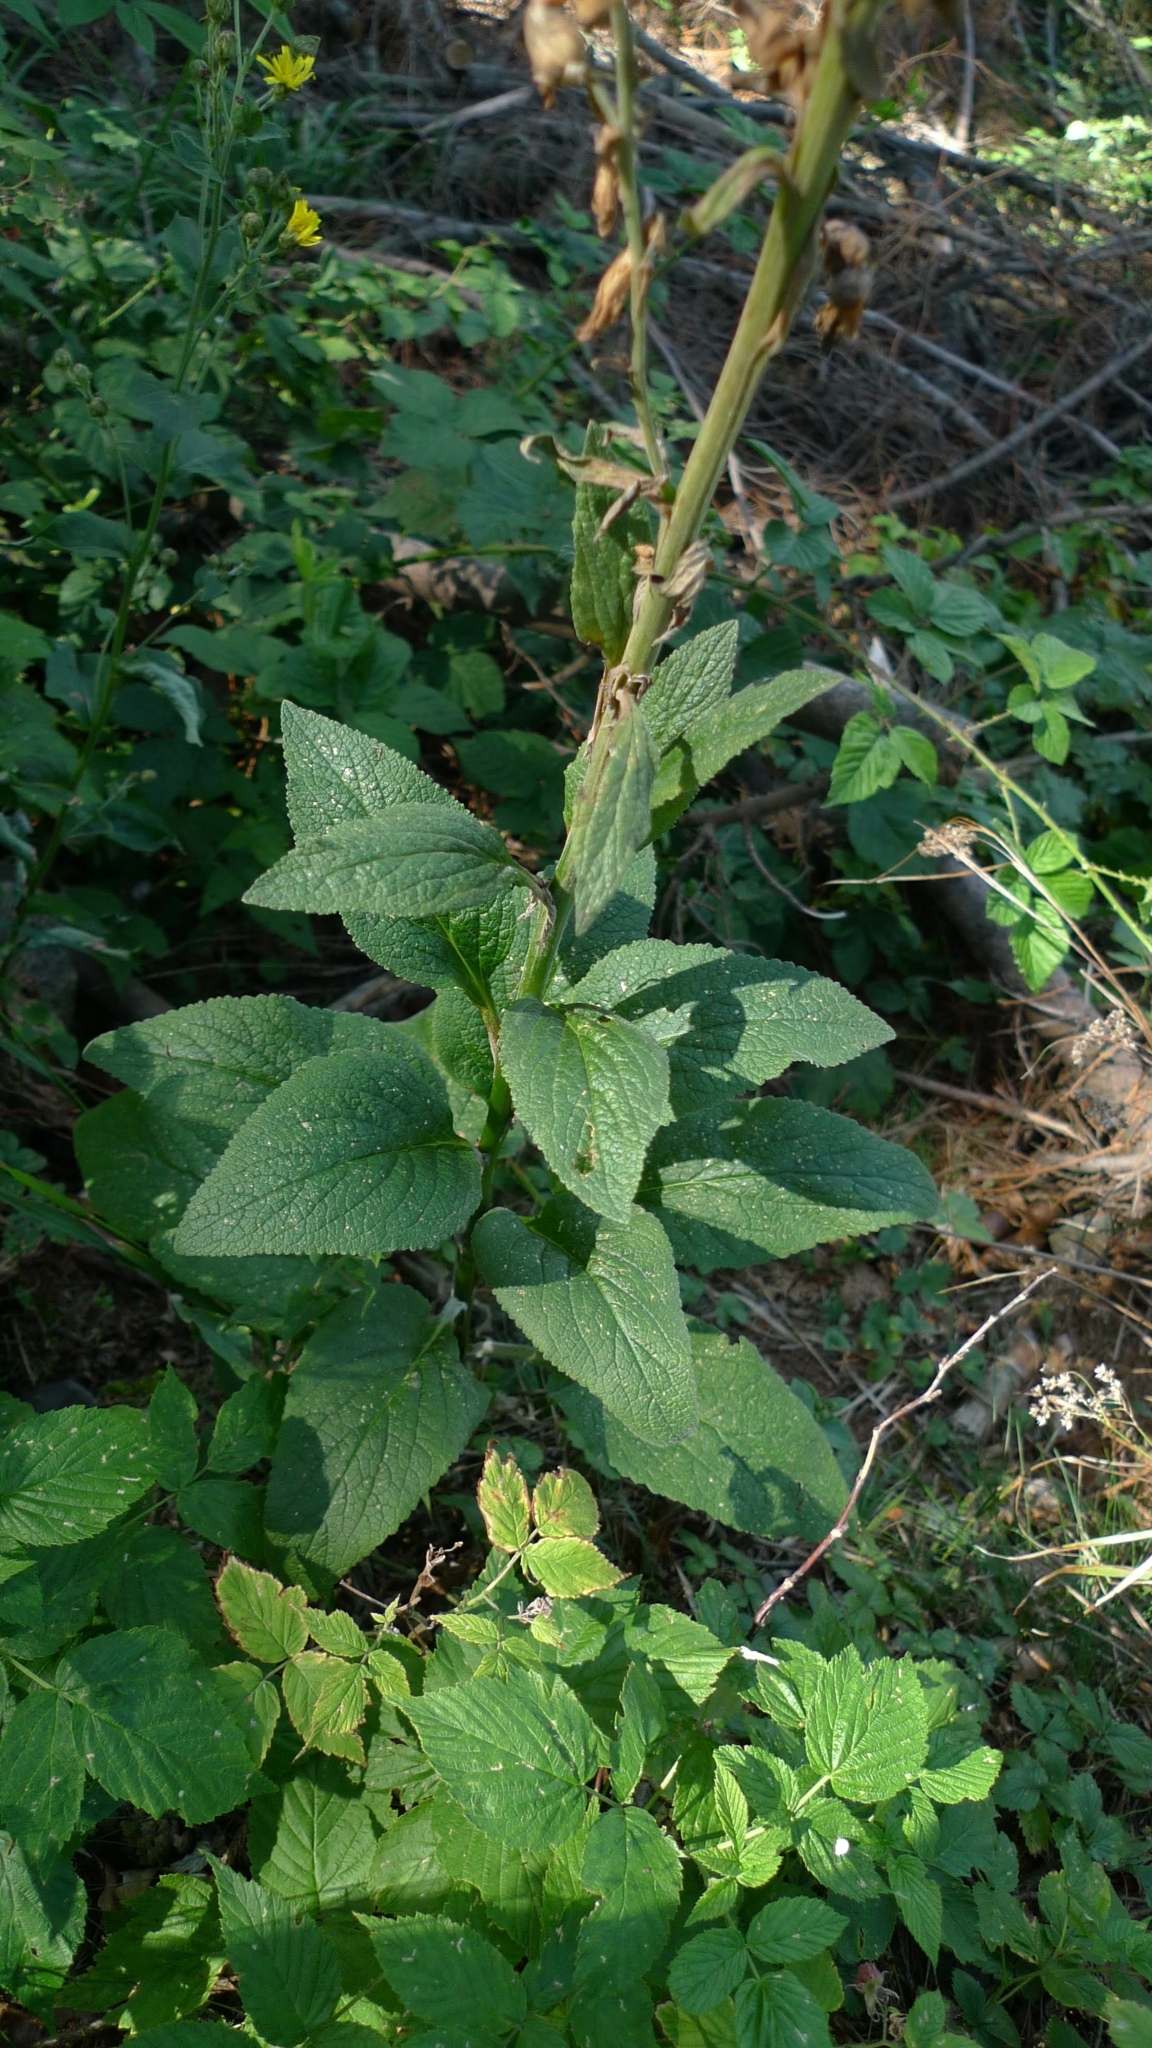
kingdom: Plantae
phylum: Tracheophyta
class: Magnoliopsida
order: Lamiales
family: Plantaginaceae
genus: Digitalis
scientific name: Digitalis purpurea
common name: Foxglove
